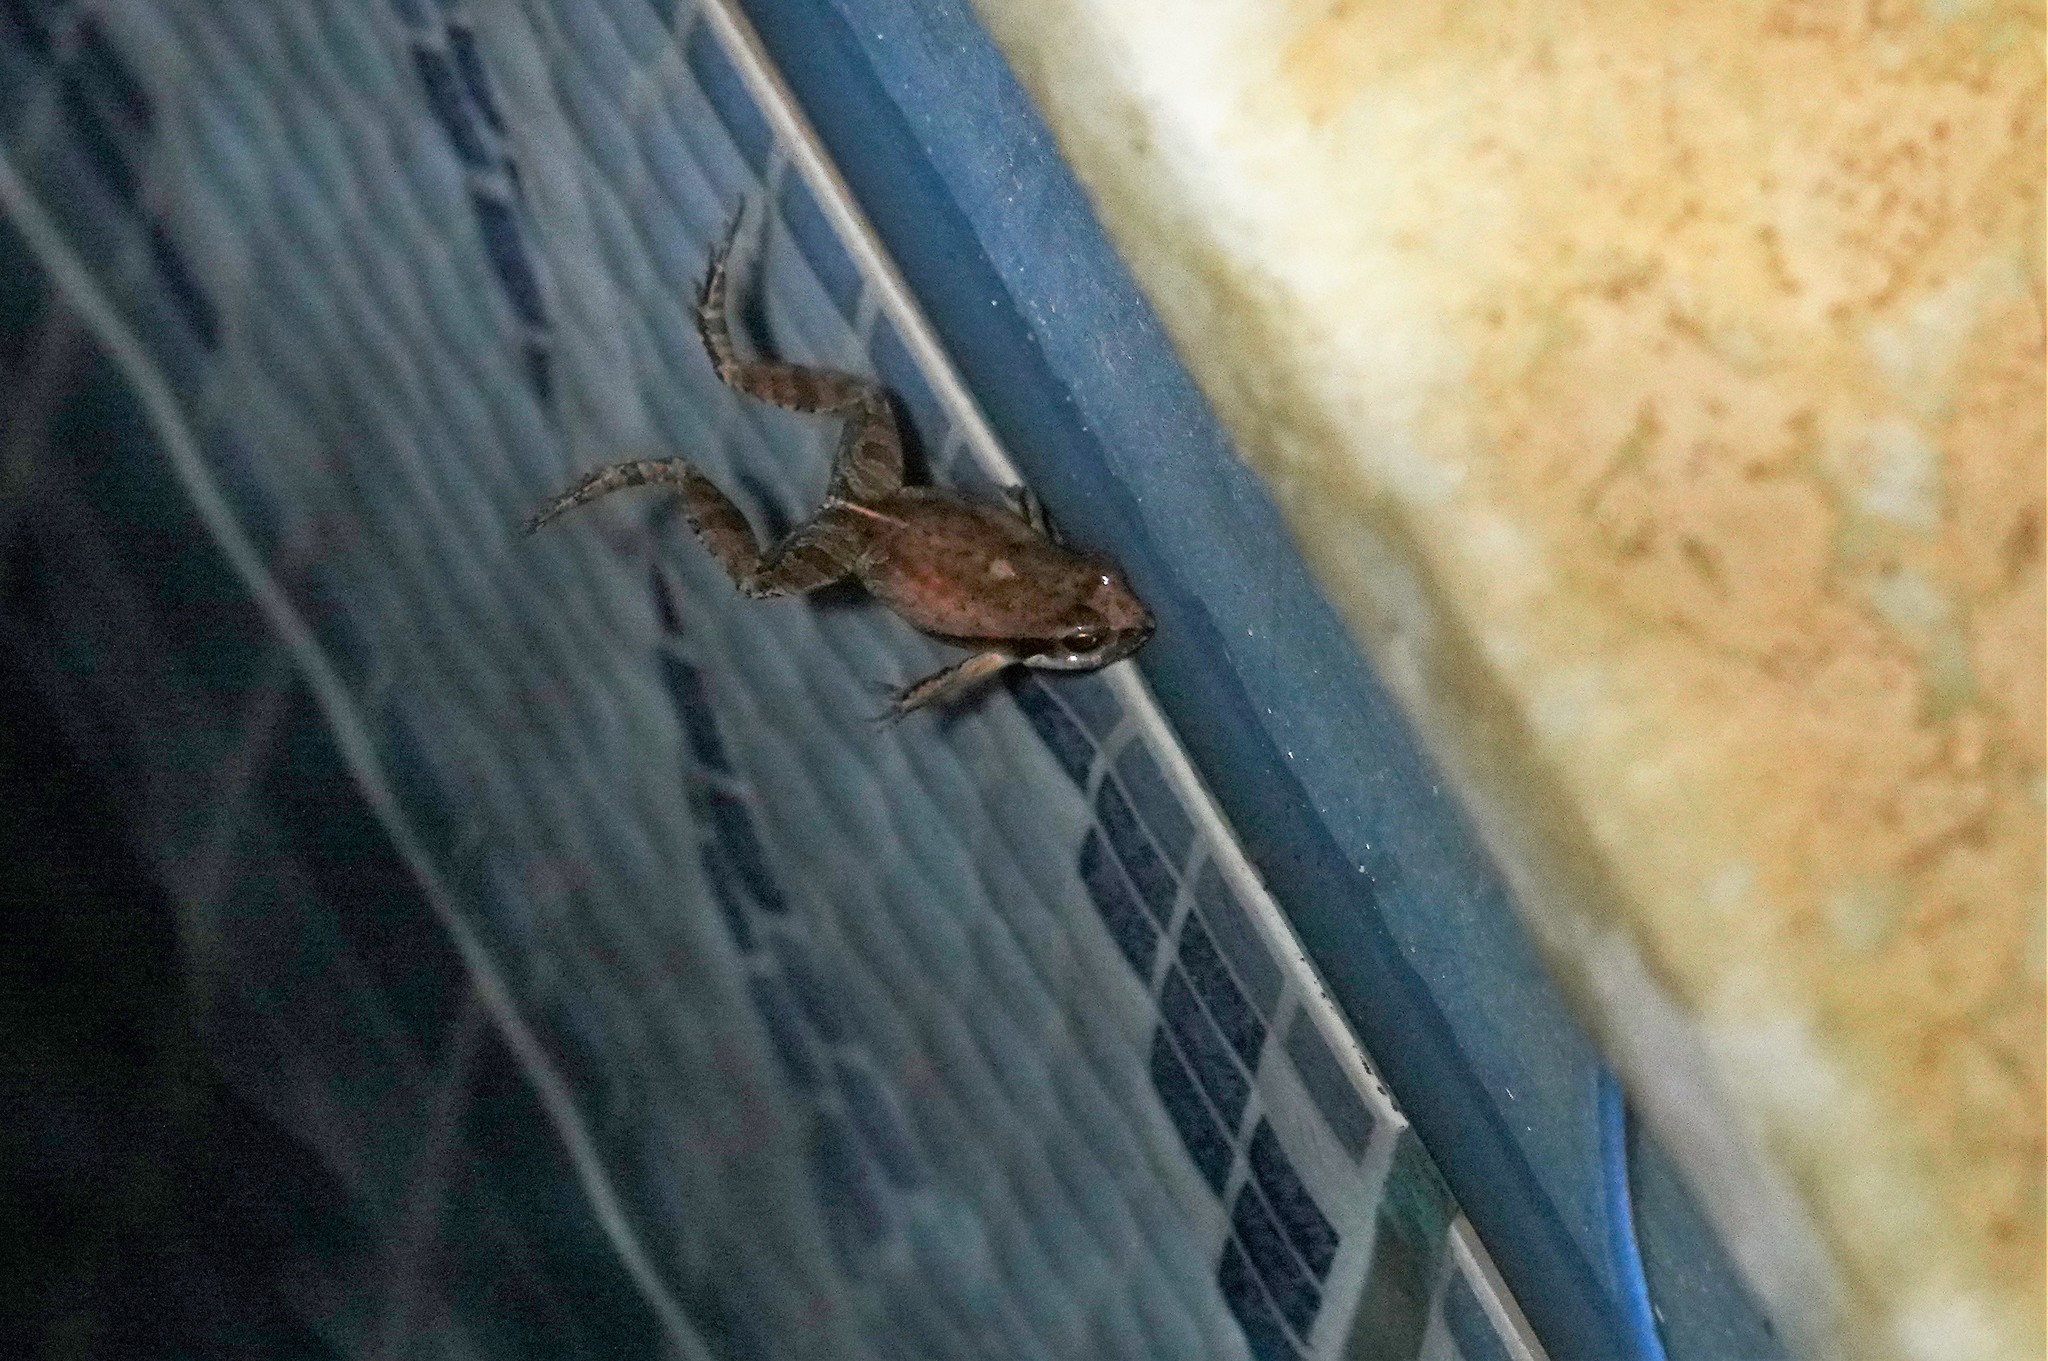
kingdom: Animalia
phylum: Chordata
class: Amphibia
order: Anura
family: Leptodactylidae
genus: Physalaemus
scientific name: Physalaemus albonotatus
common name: Menwig frog
